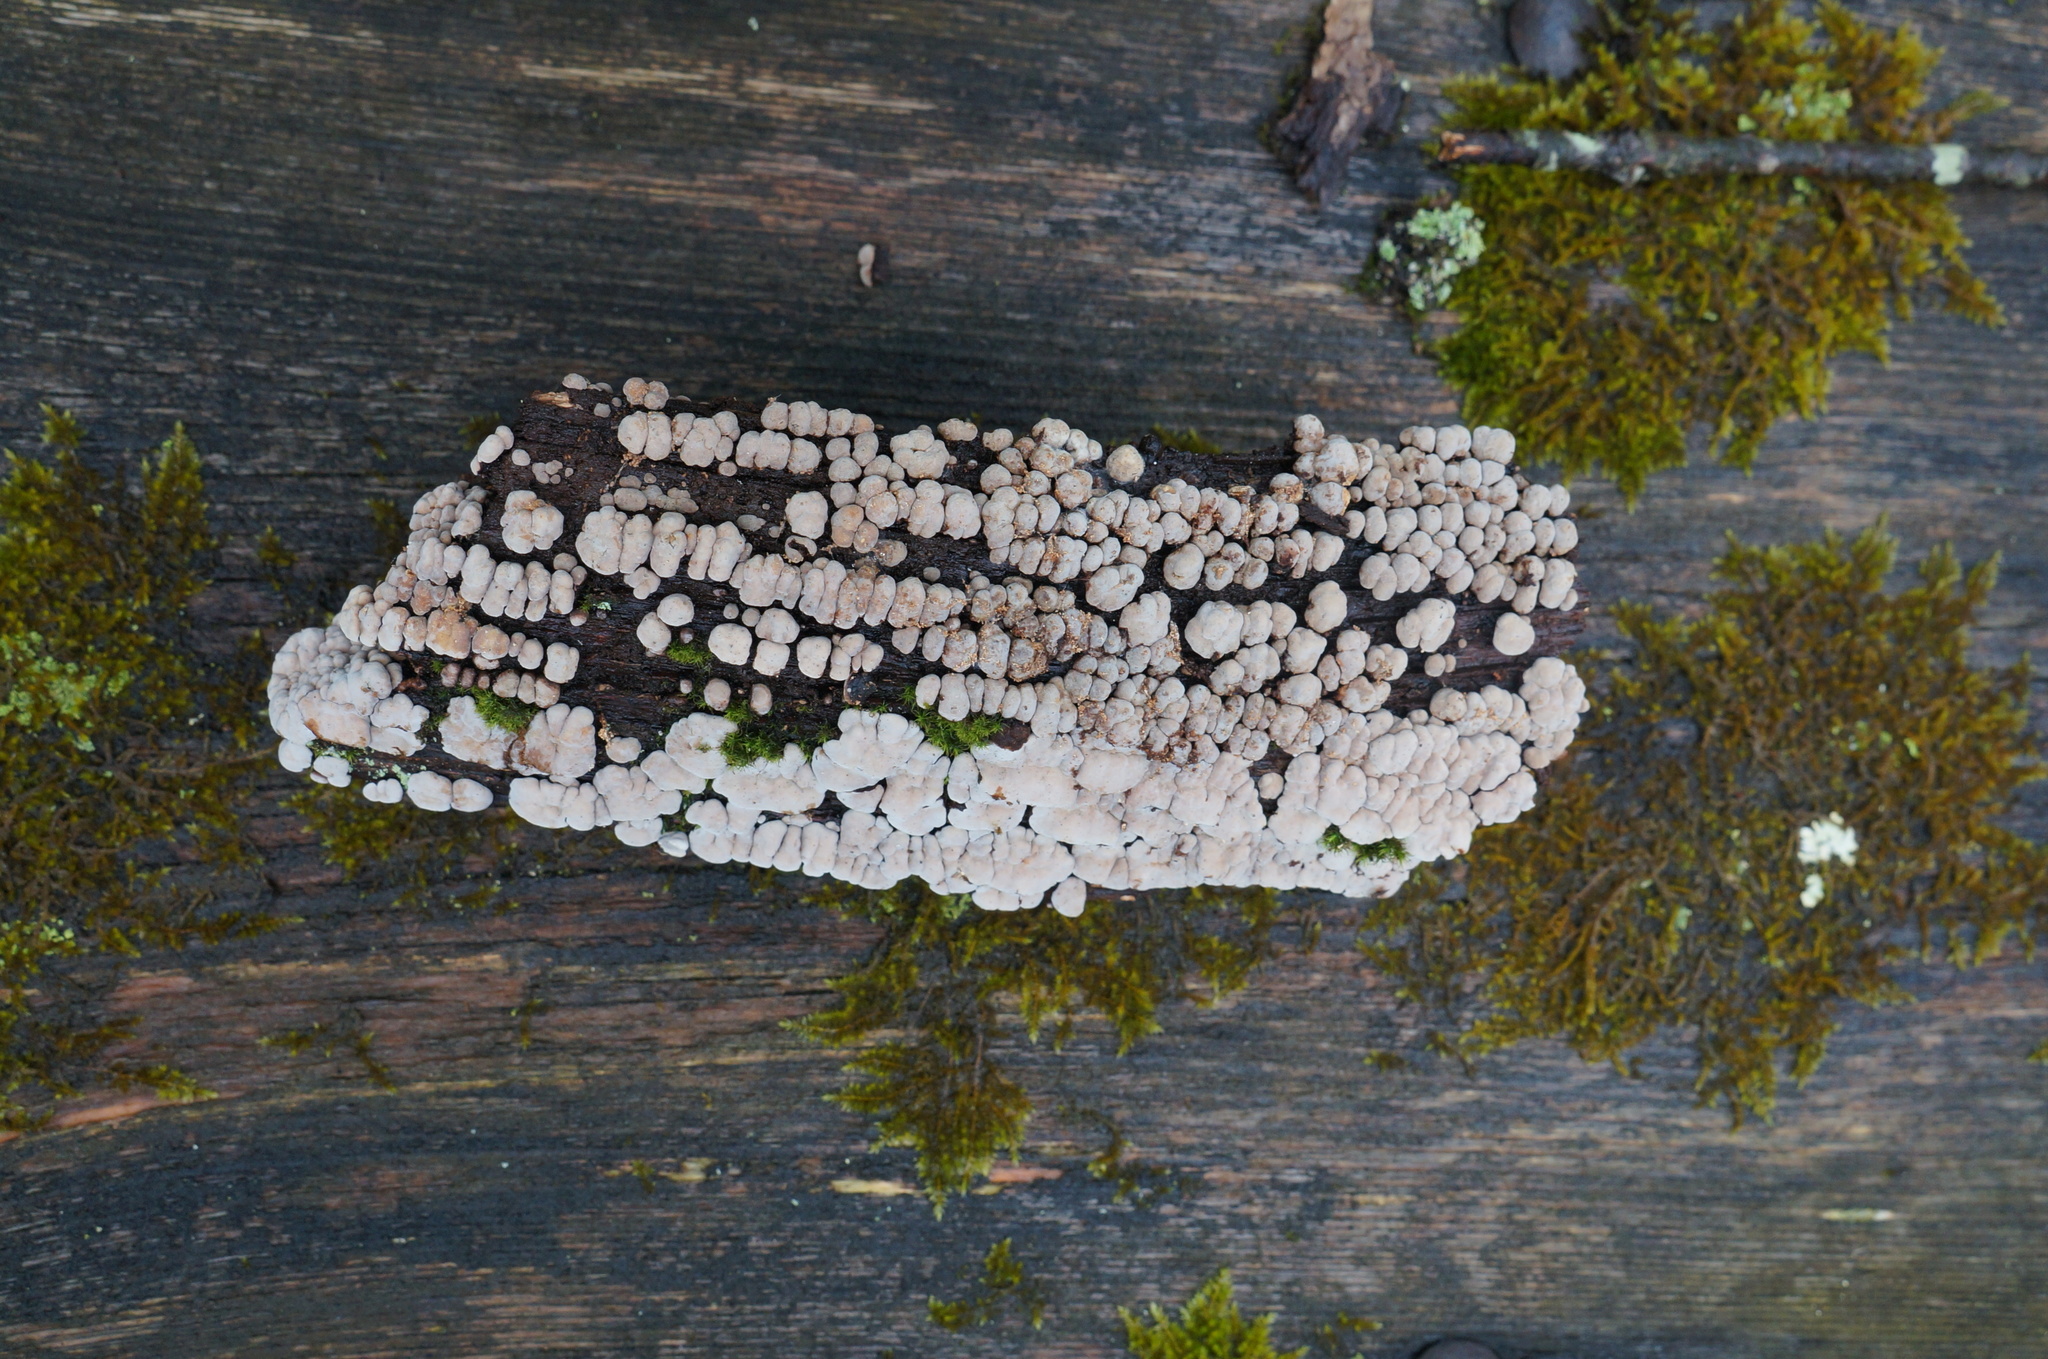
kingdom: Fungi
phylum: Basidiomycota
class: Agaricomycetes
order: Russulales
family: Stereaceae
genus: Xylobolus
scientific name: Xylobolus frustulatus
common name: Ceramic parchment
